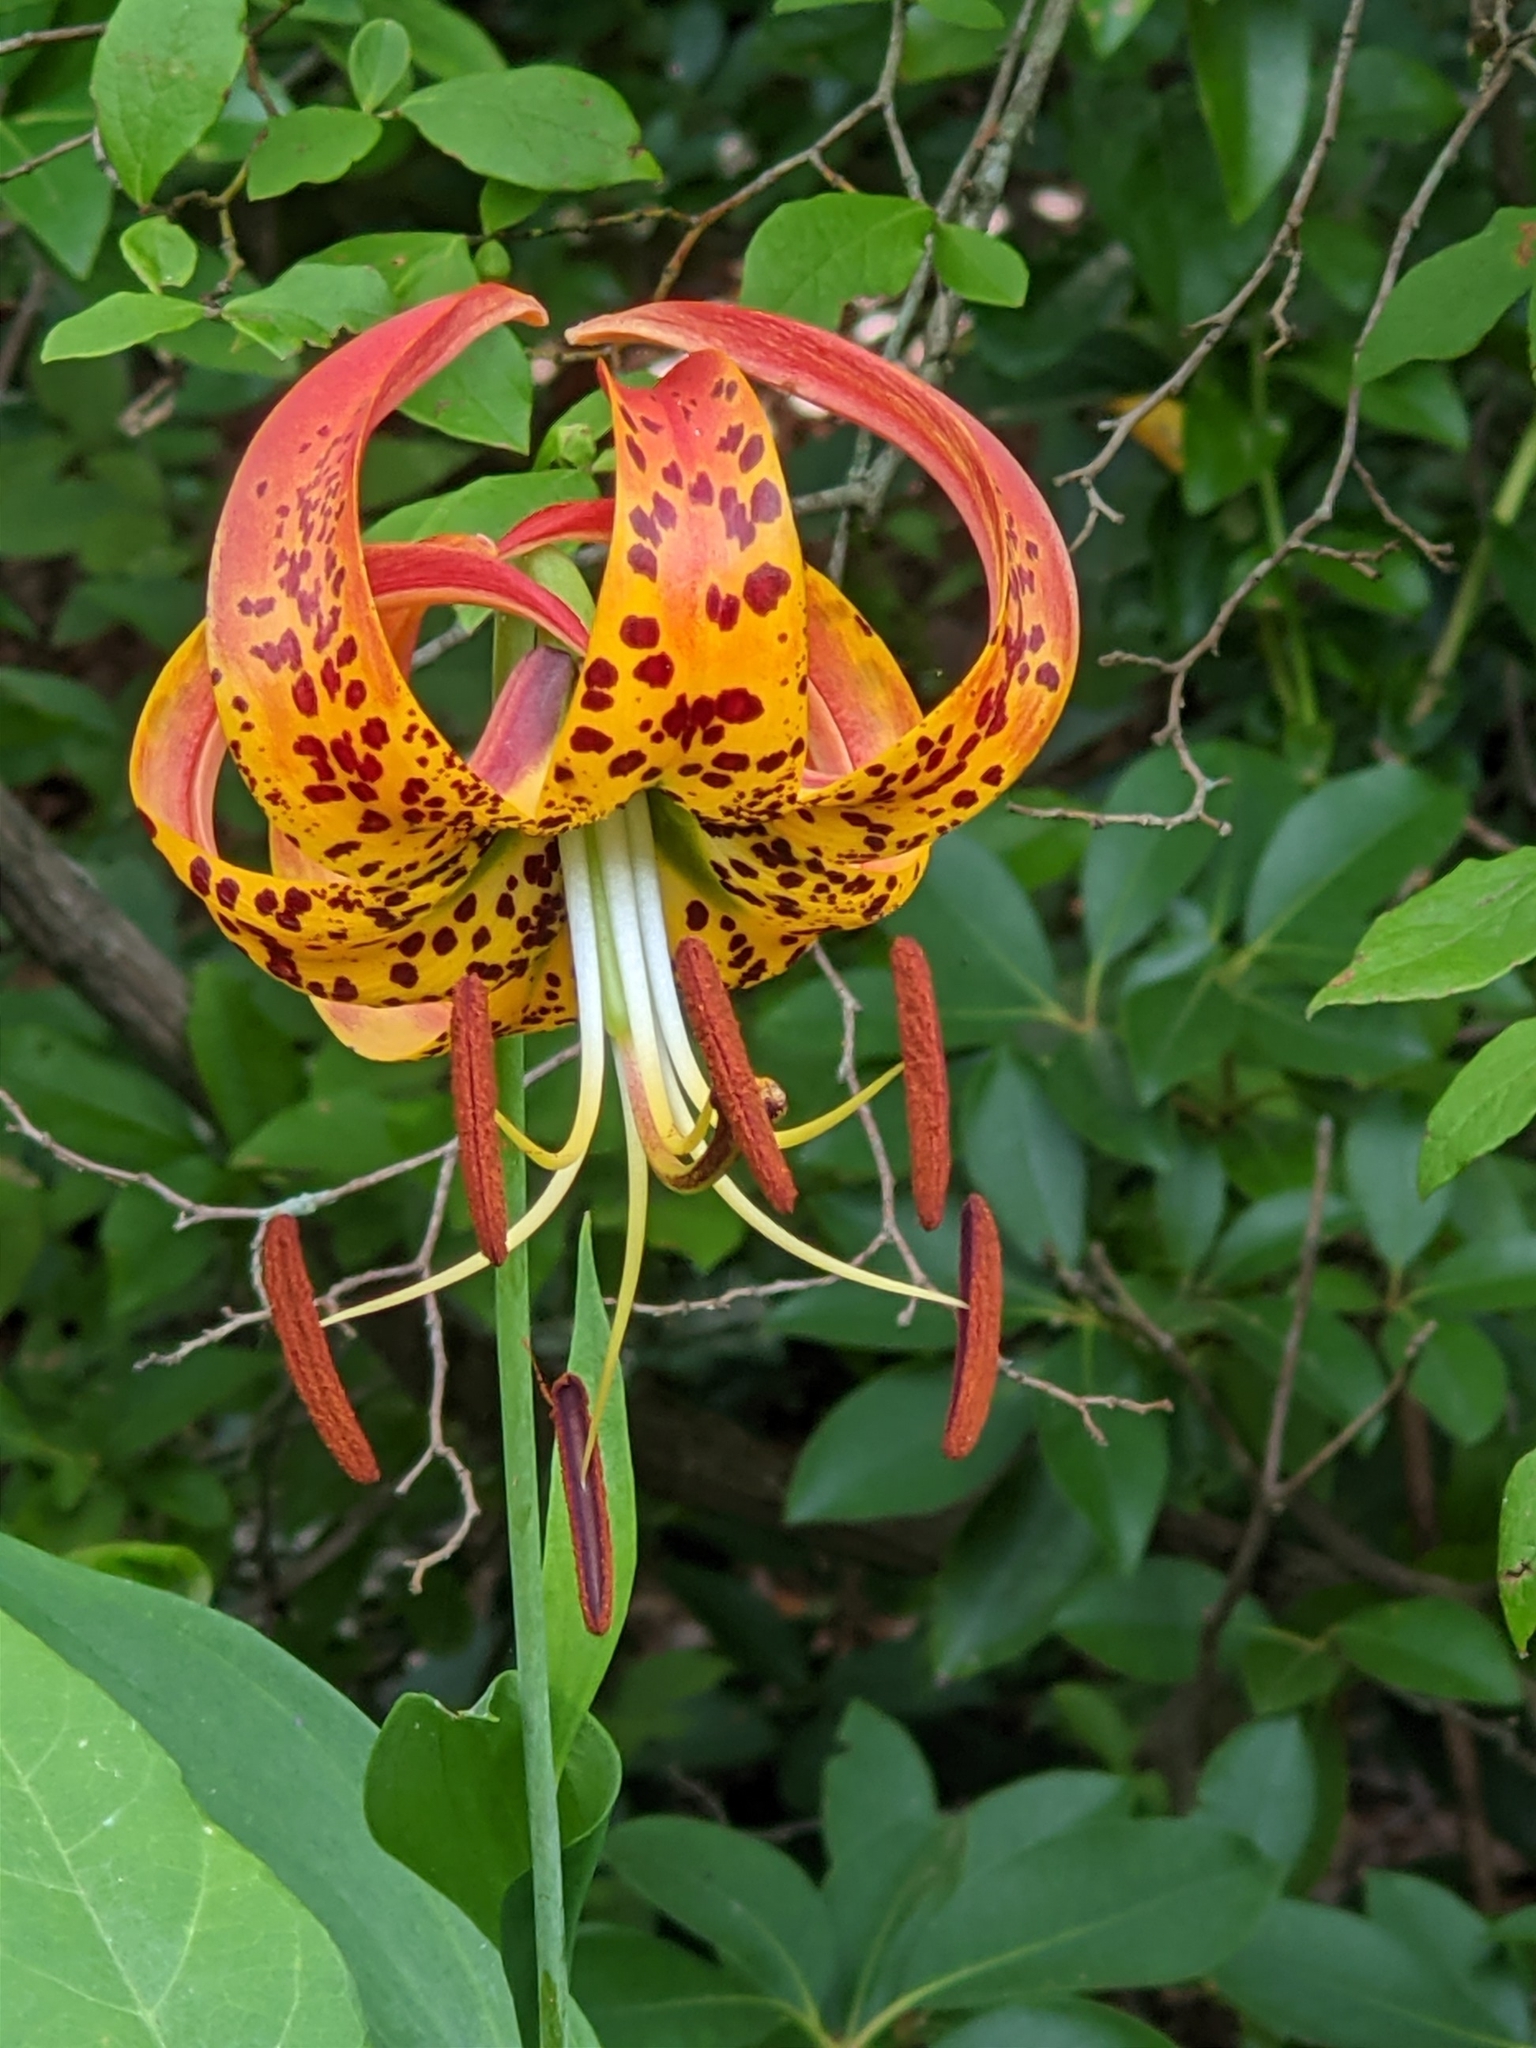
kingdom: Plantae
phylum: Tracheophyta
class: Liliopsida
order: Liliales
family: Liliaceae
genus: Lilium
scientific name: Lilium superbum
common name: American turk's-cap lily
